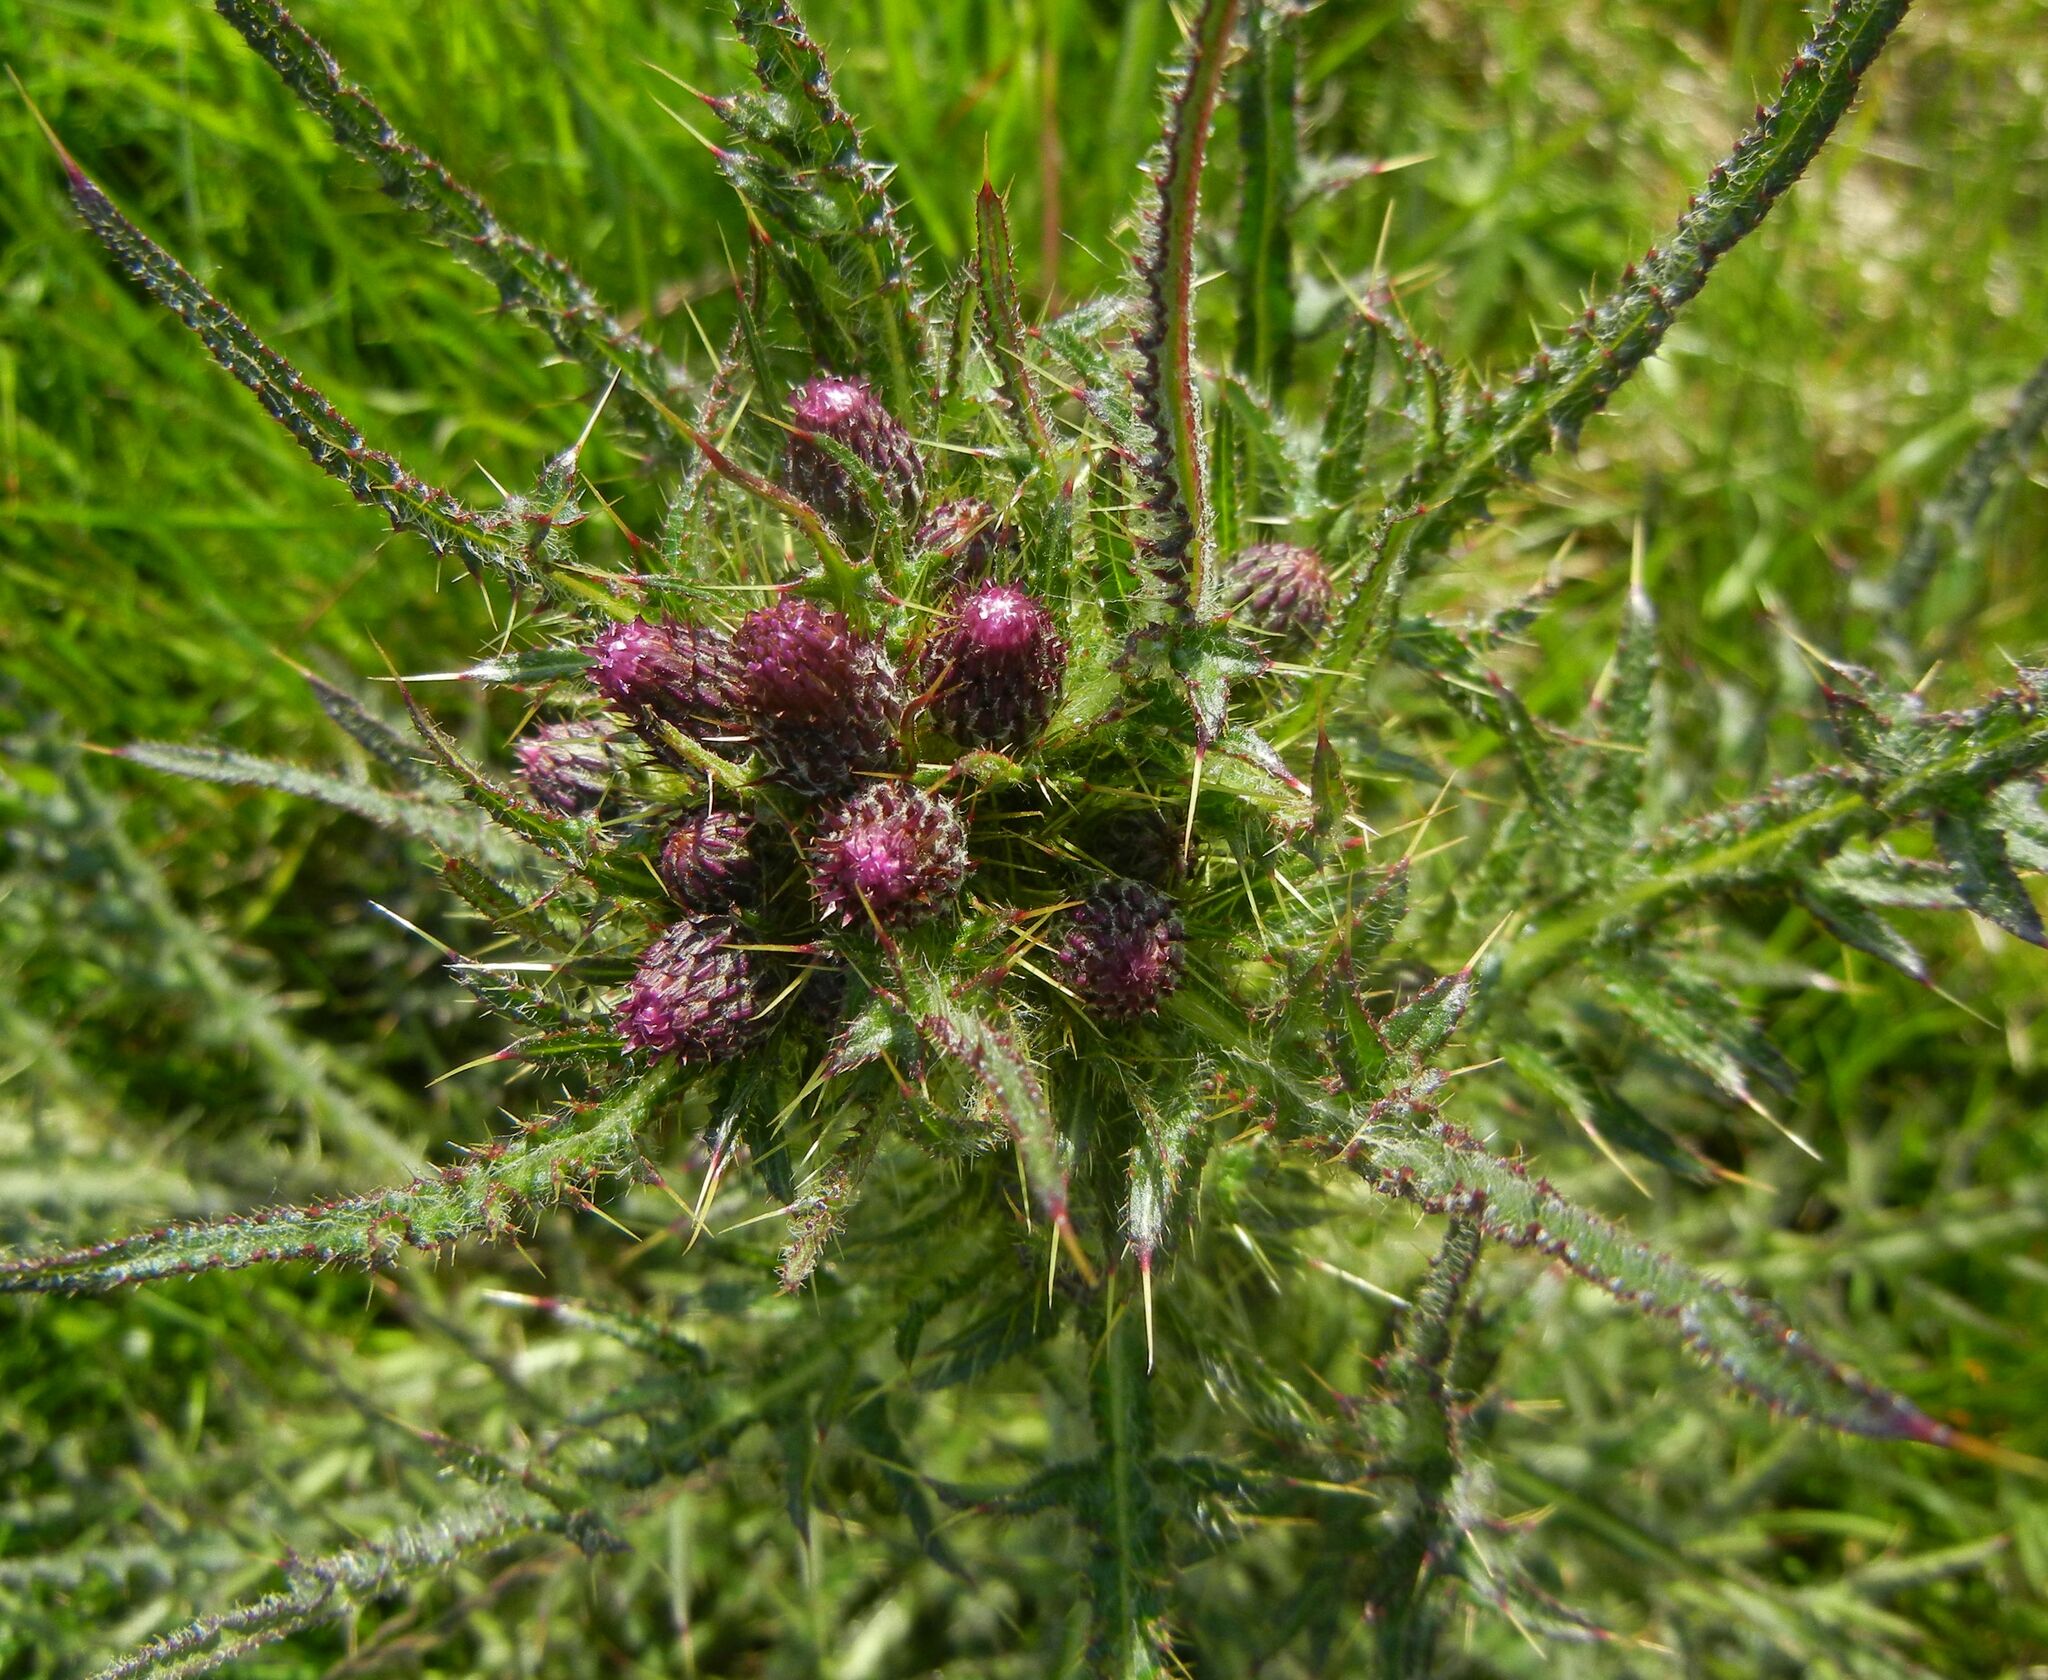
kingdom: Plantae
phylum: Tracheophyta
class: Magnoliopsida
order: Asterales
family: Asteraceae
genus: Cirsium
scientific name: Cirsium palustre
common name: Marsh thistle
